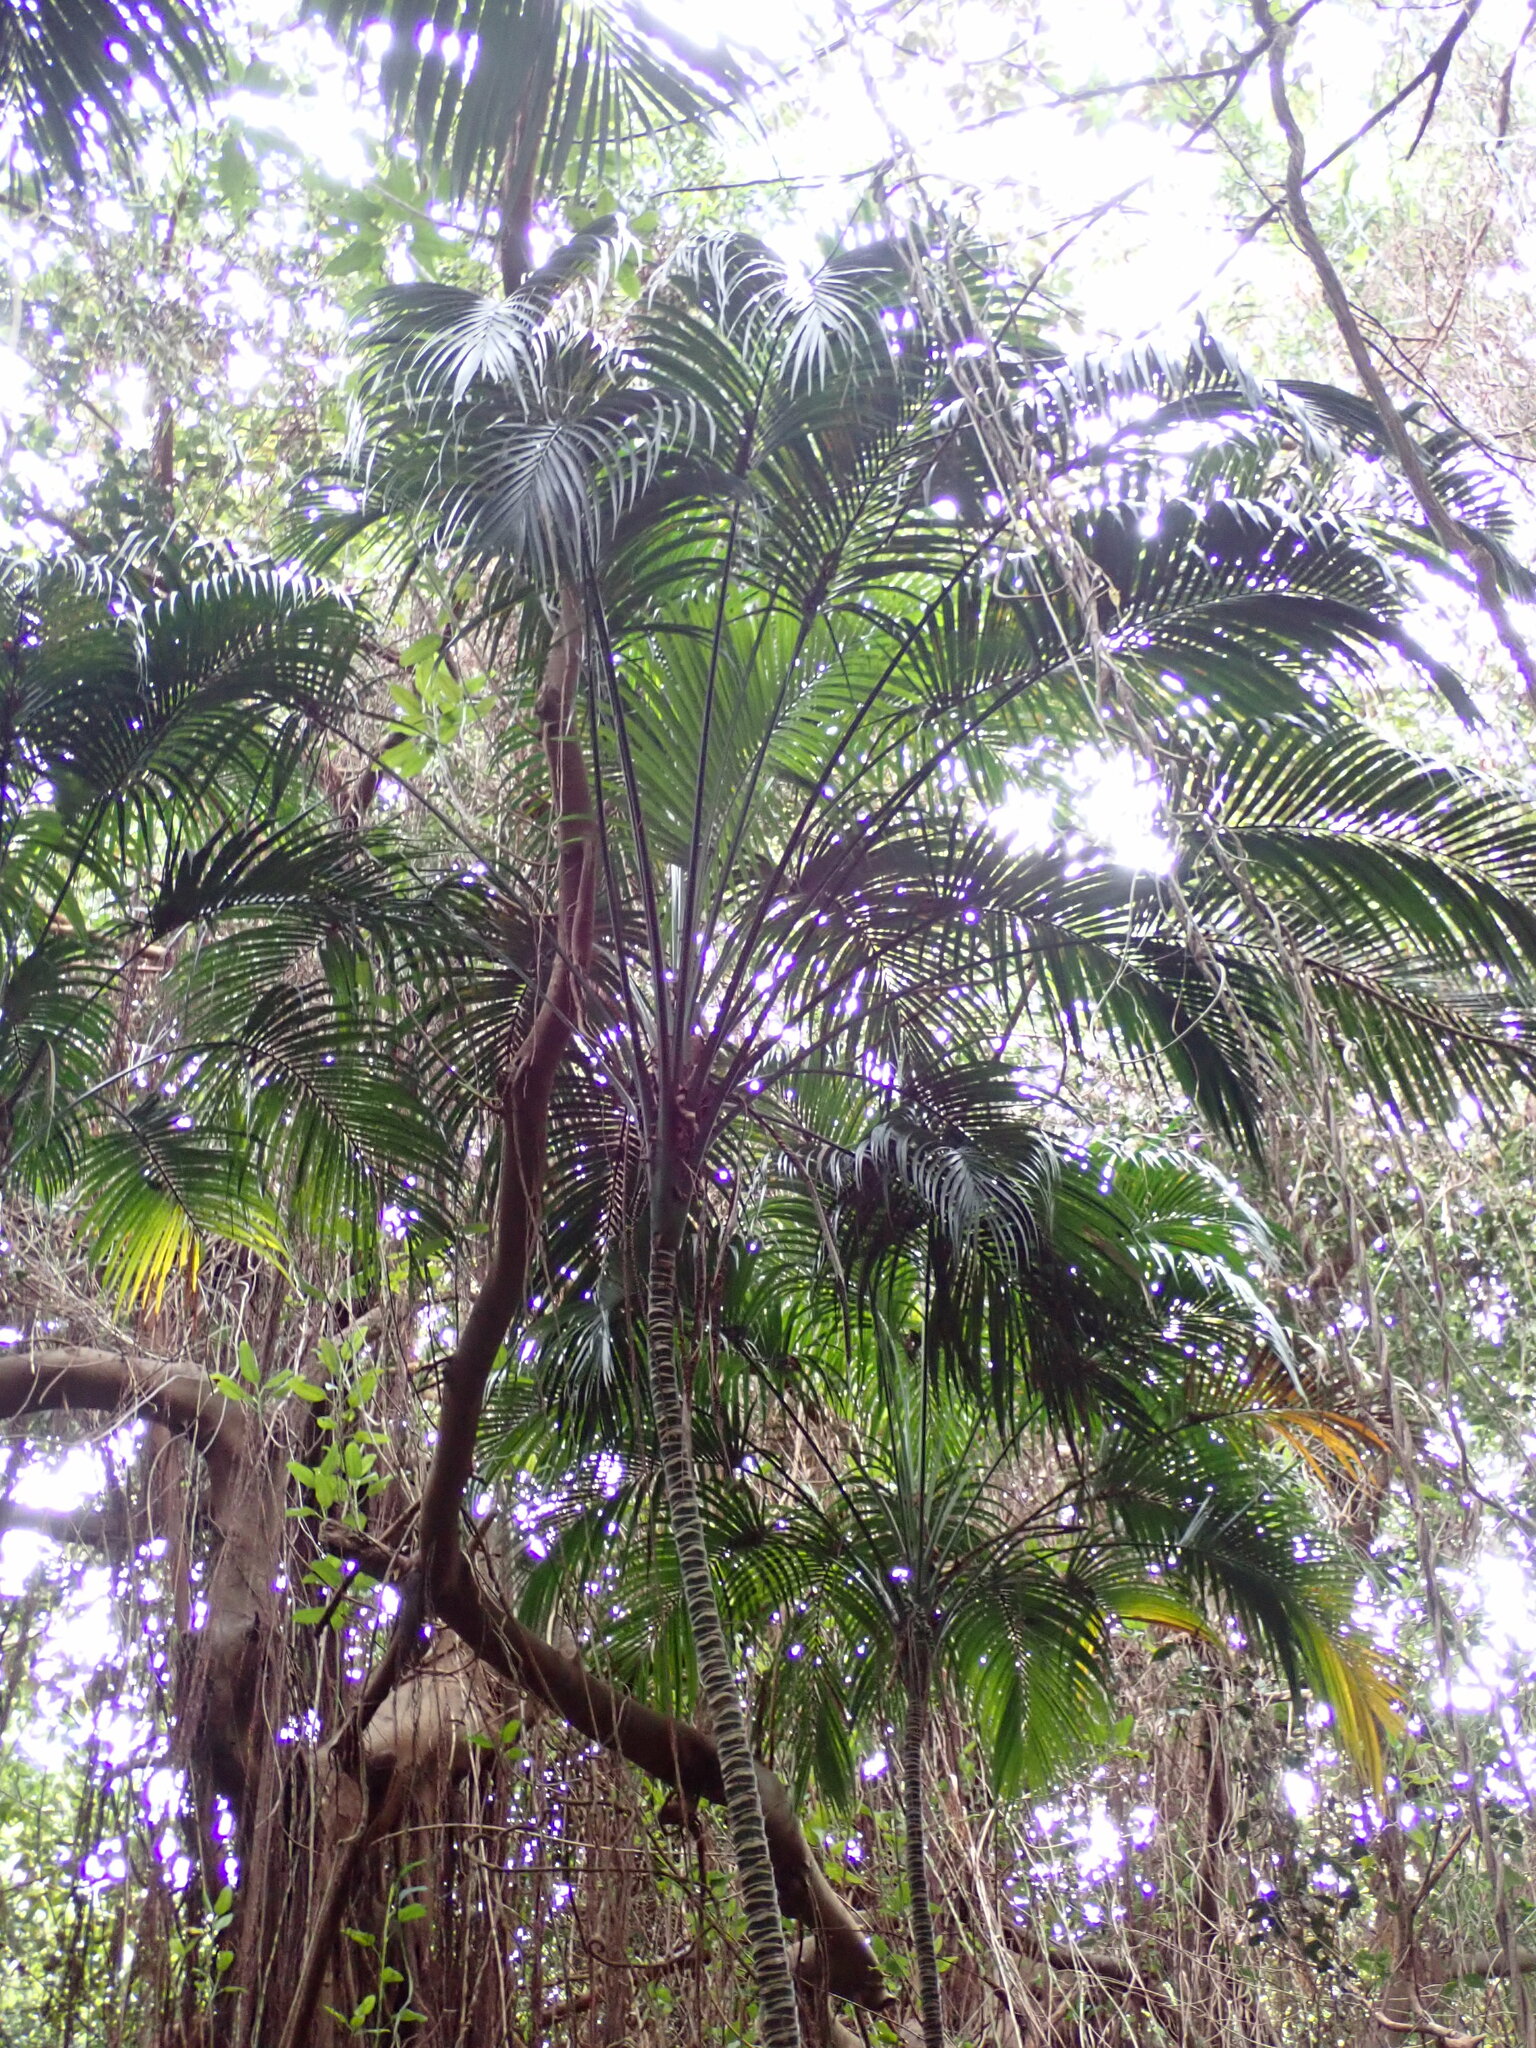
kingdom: Plantae
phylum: Tracheophyta
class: Liliopsida
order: Arecales
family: Arecaceae
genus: Howea
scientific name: Howea belmoreana
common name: Curly palm
